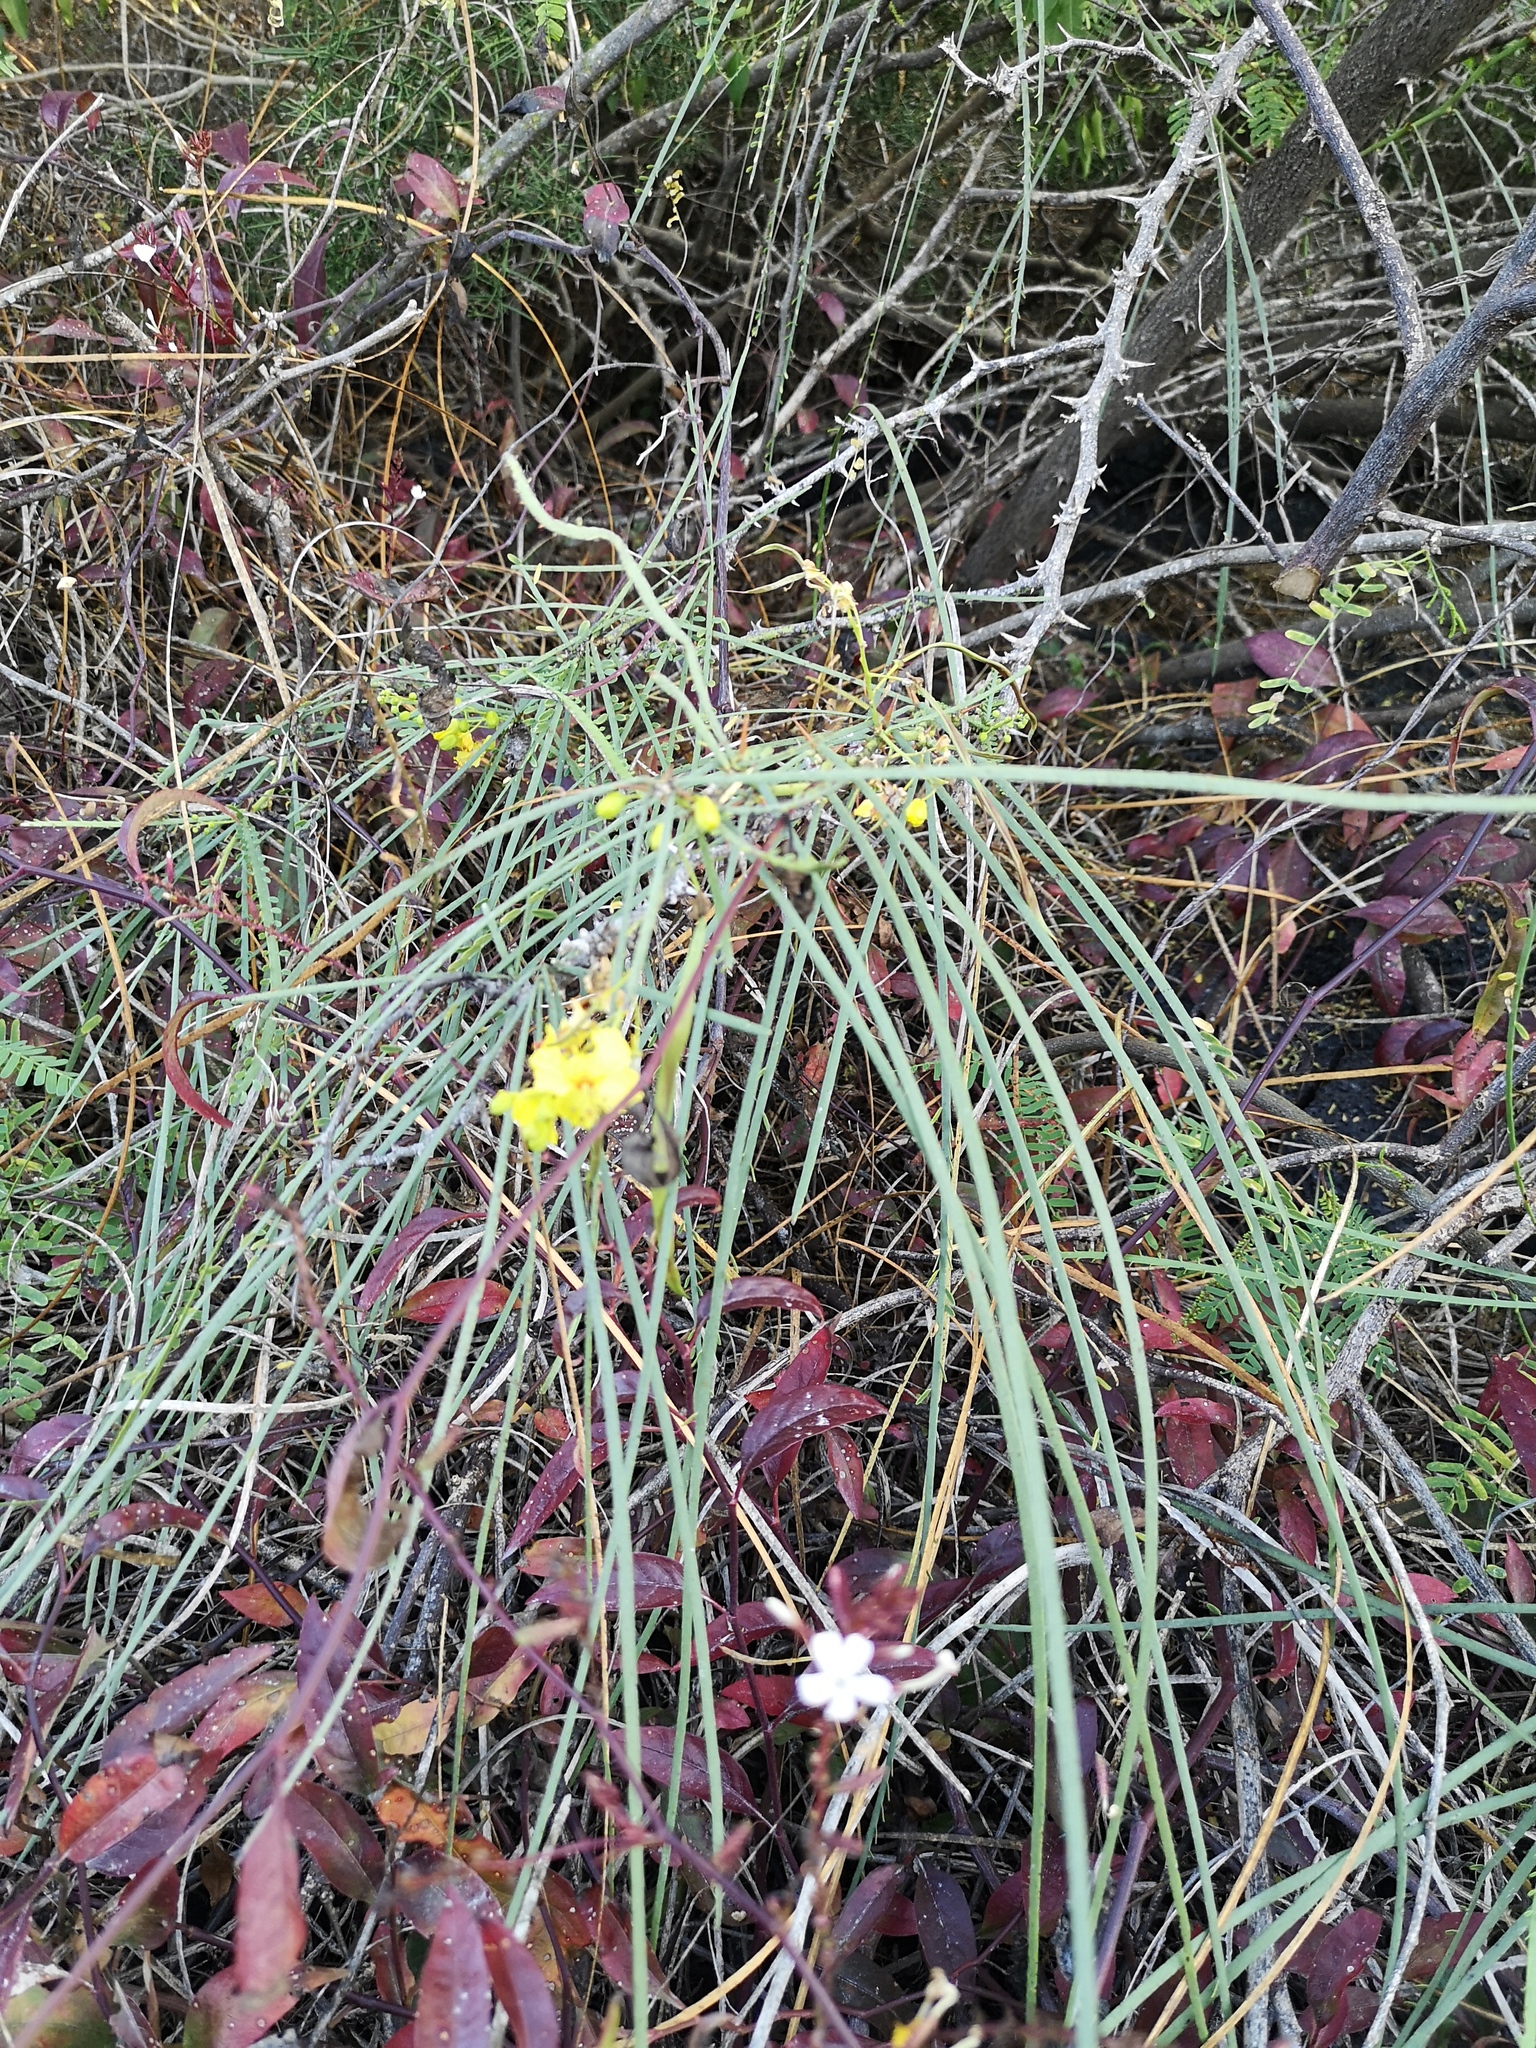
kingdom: Plantae
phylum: Tracheophyta
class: Magnoliopsida
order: Fabales
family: Fabaceae
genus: Parkinsonia
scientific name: Parkinsonia aculeata
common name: Jerusalem thorn
